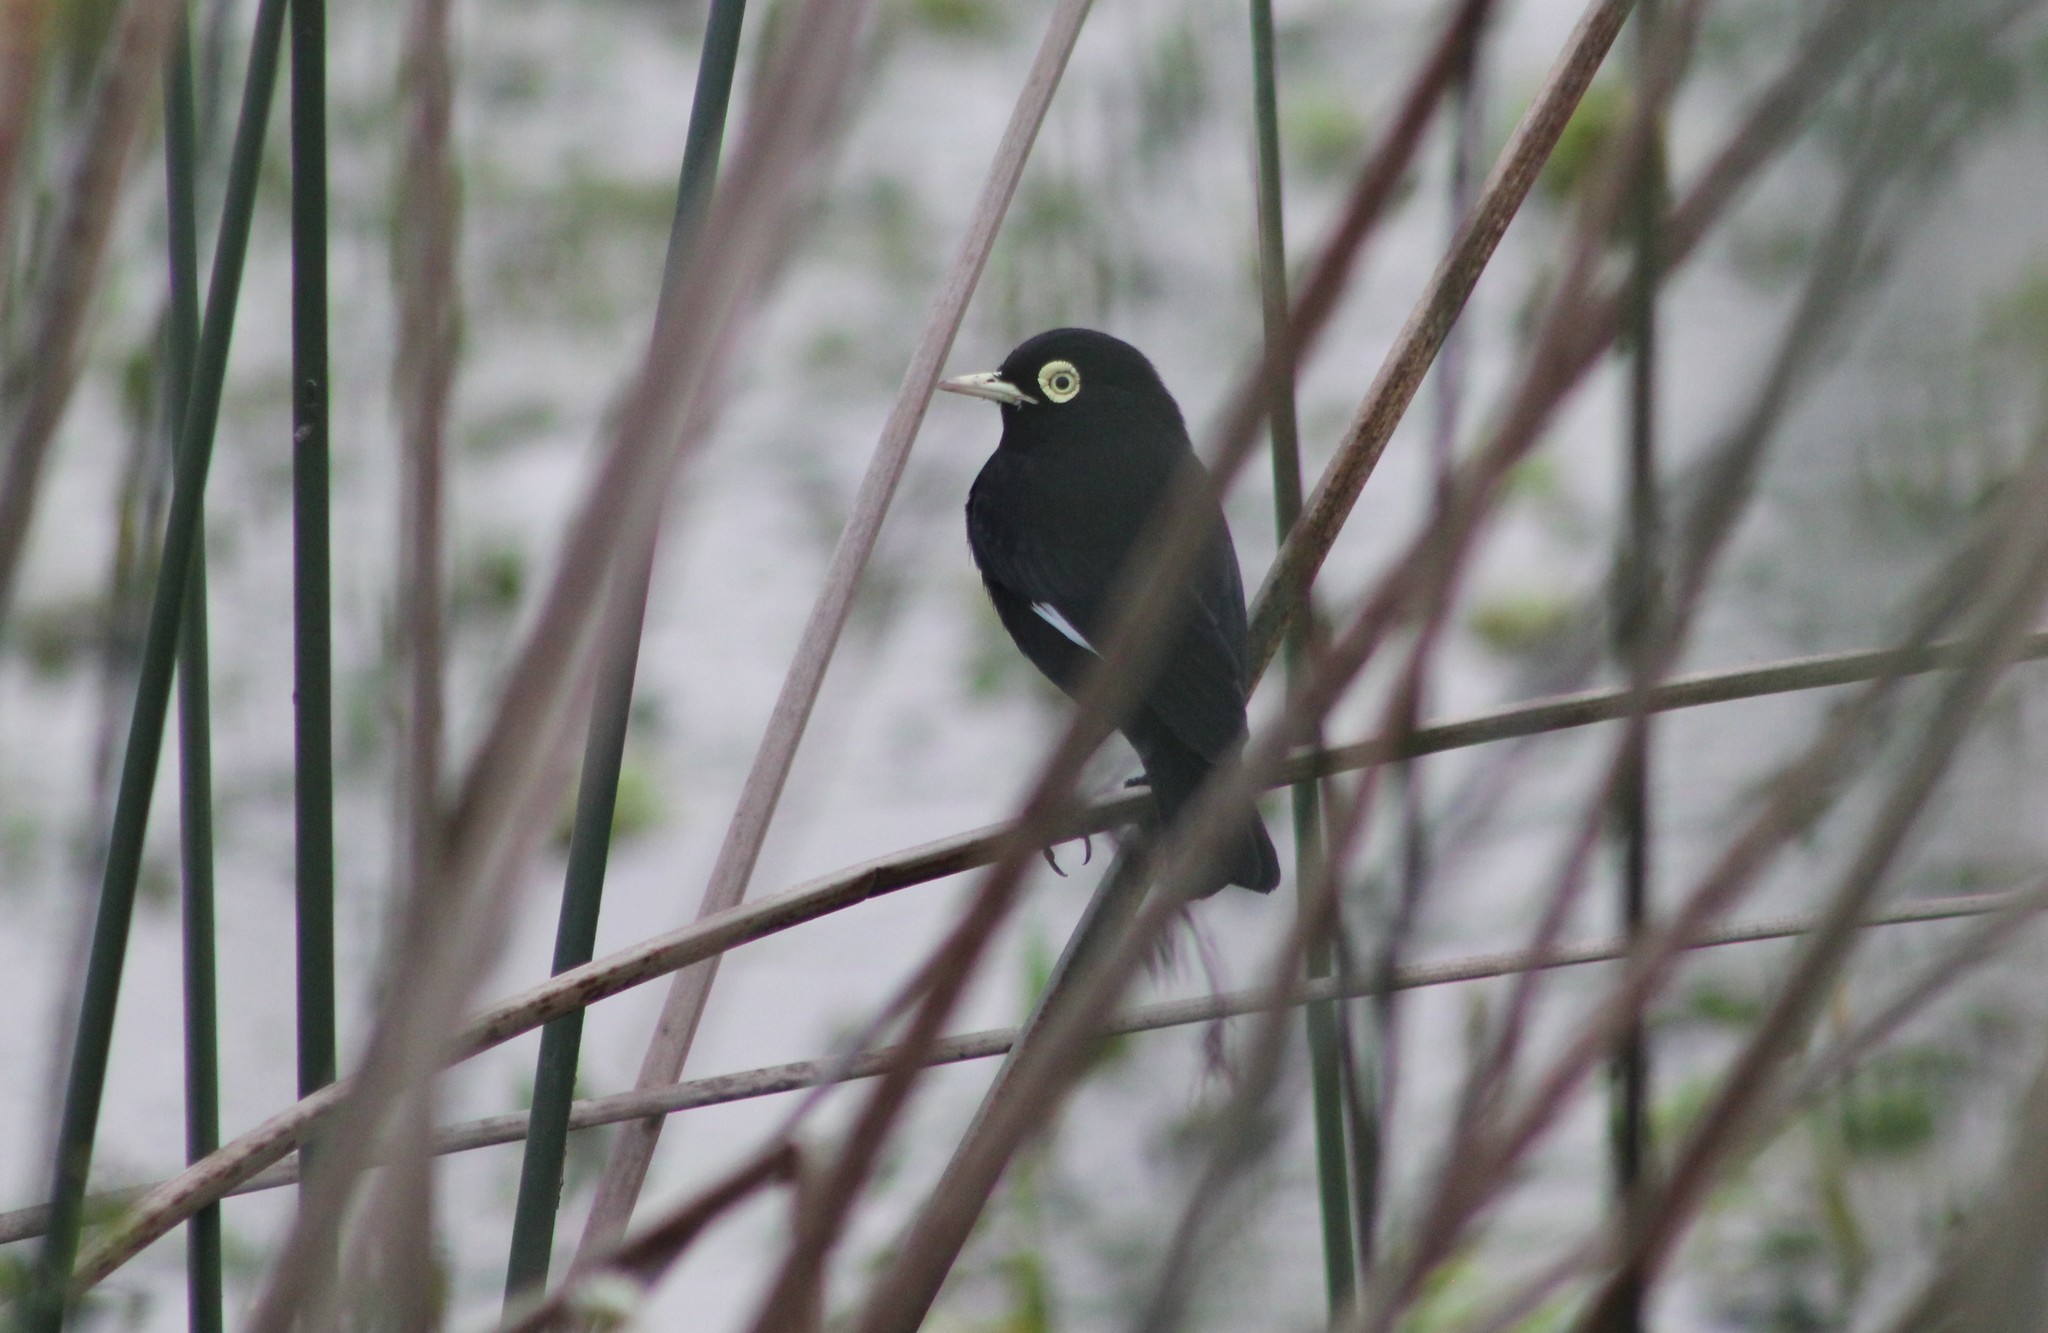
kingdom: Animalia
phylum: Chordata
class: Aves
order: Passeriformes
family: Tyrannidae
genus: Hymenops
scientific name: Hymenops perspicillatus
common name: Spectacled tyrant
